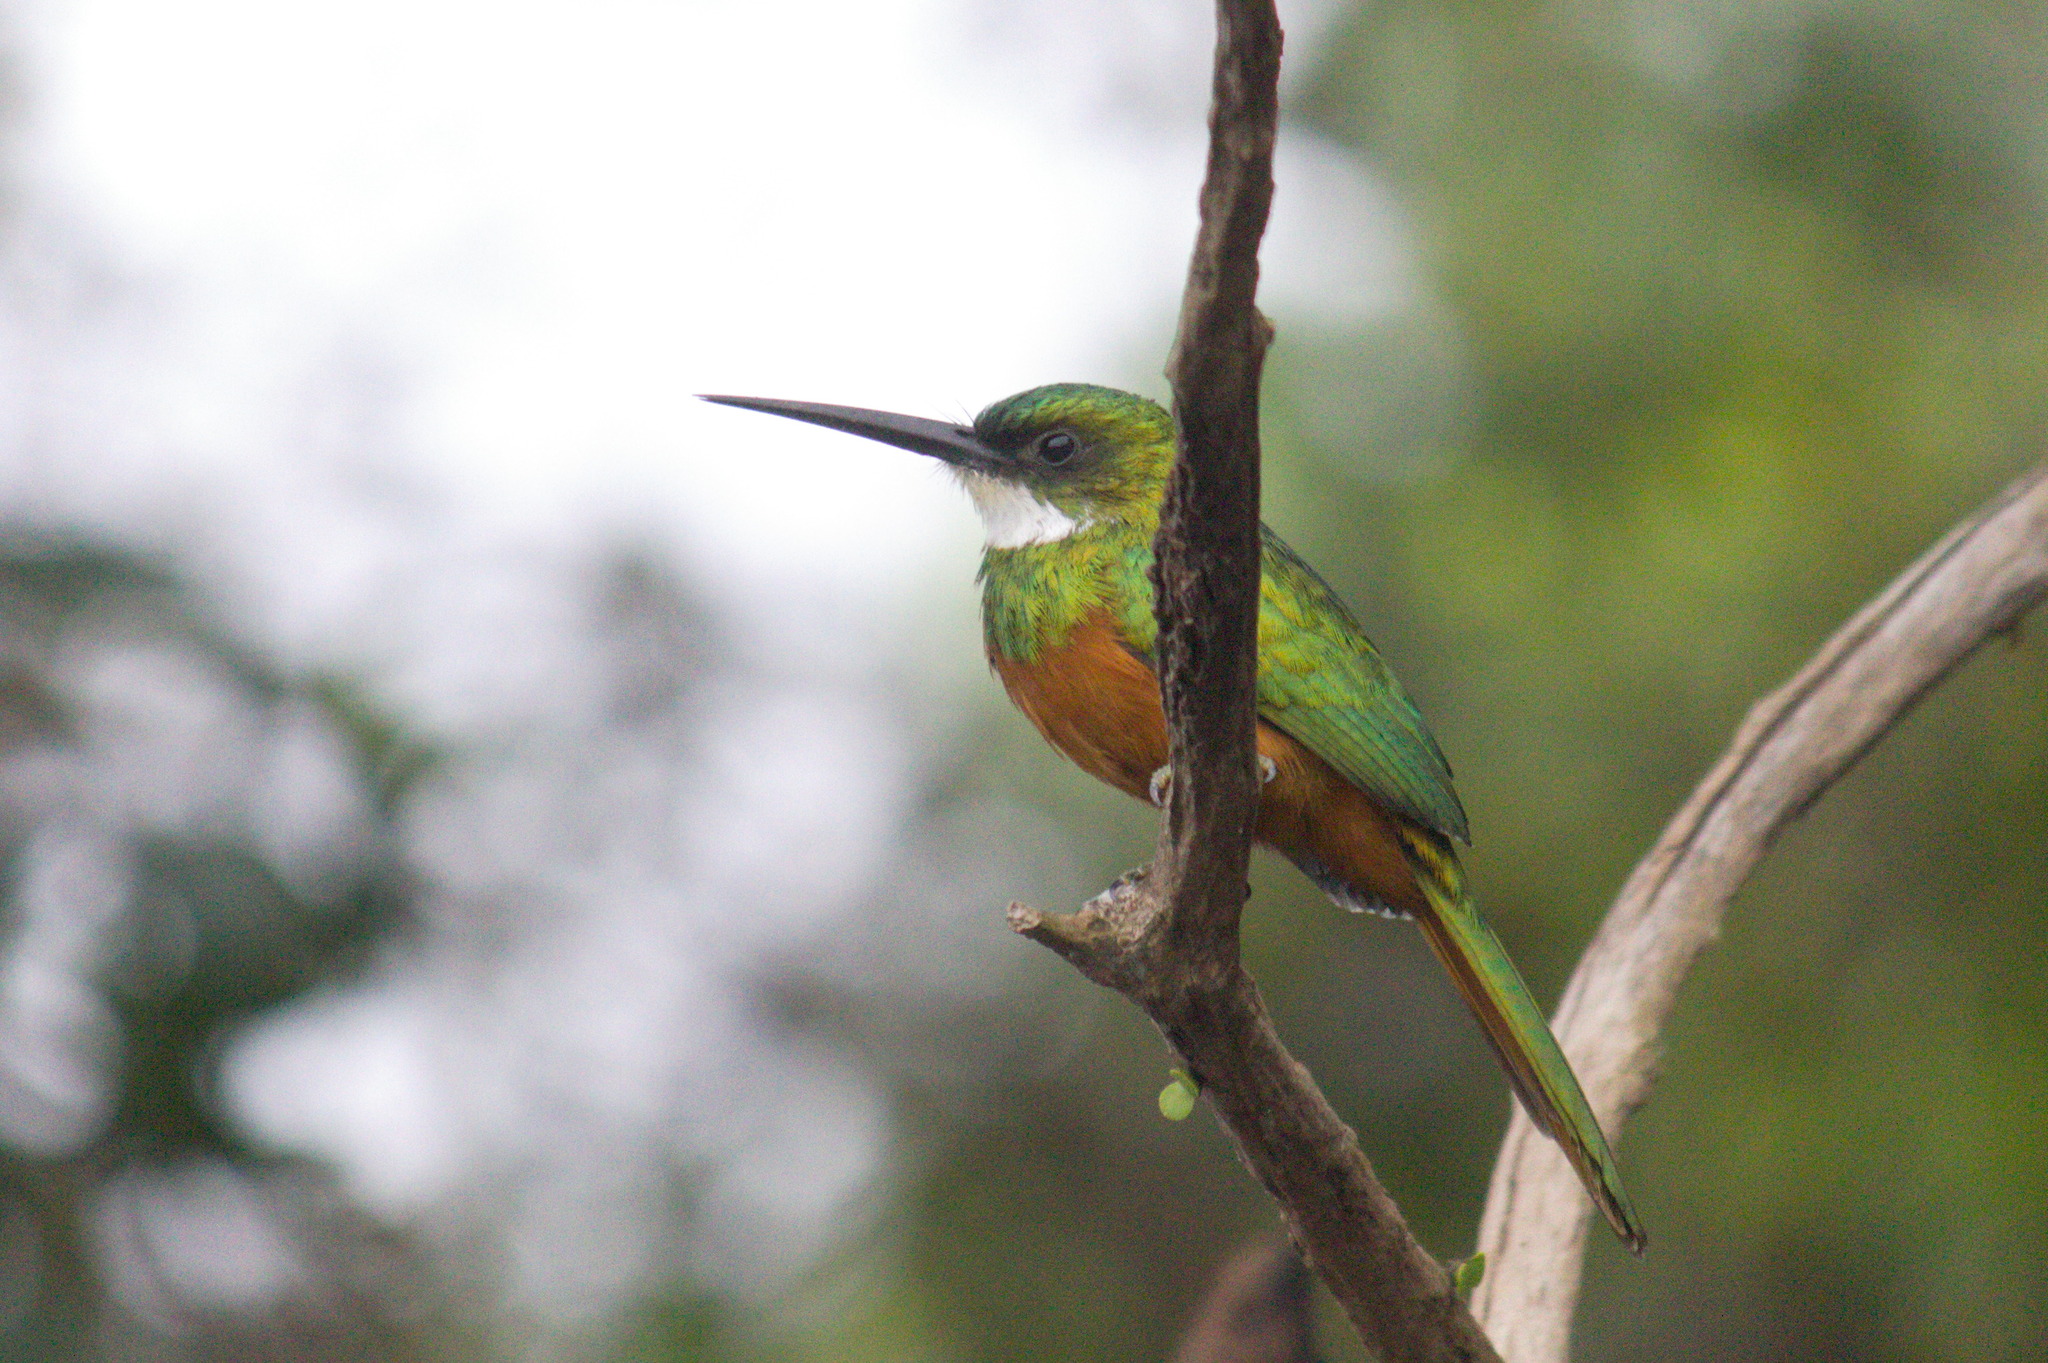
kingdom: Animalia
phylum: Chordata
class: Aves
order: Piciformes
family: Galbulidae
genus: Galbula
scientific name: Galbula ruficauda
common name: Rufous-tailed jacamar
